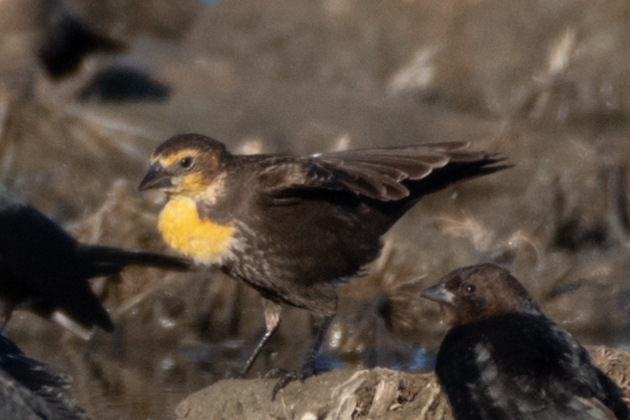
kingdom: Animalia
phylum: Chordata
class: Aves
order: Passeriformes
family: Icteridae
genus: Xanthocephalus
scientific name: Xanthocephalus xanthocephalus
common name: Yellow-headed blackbird
